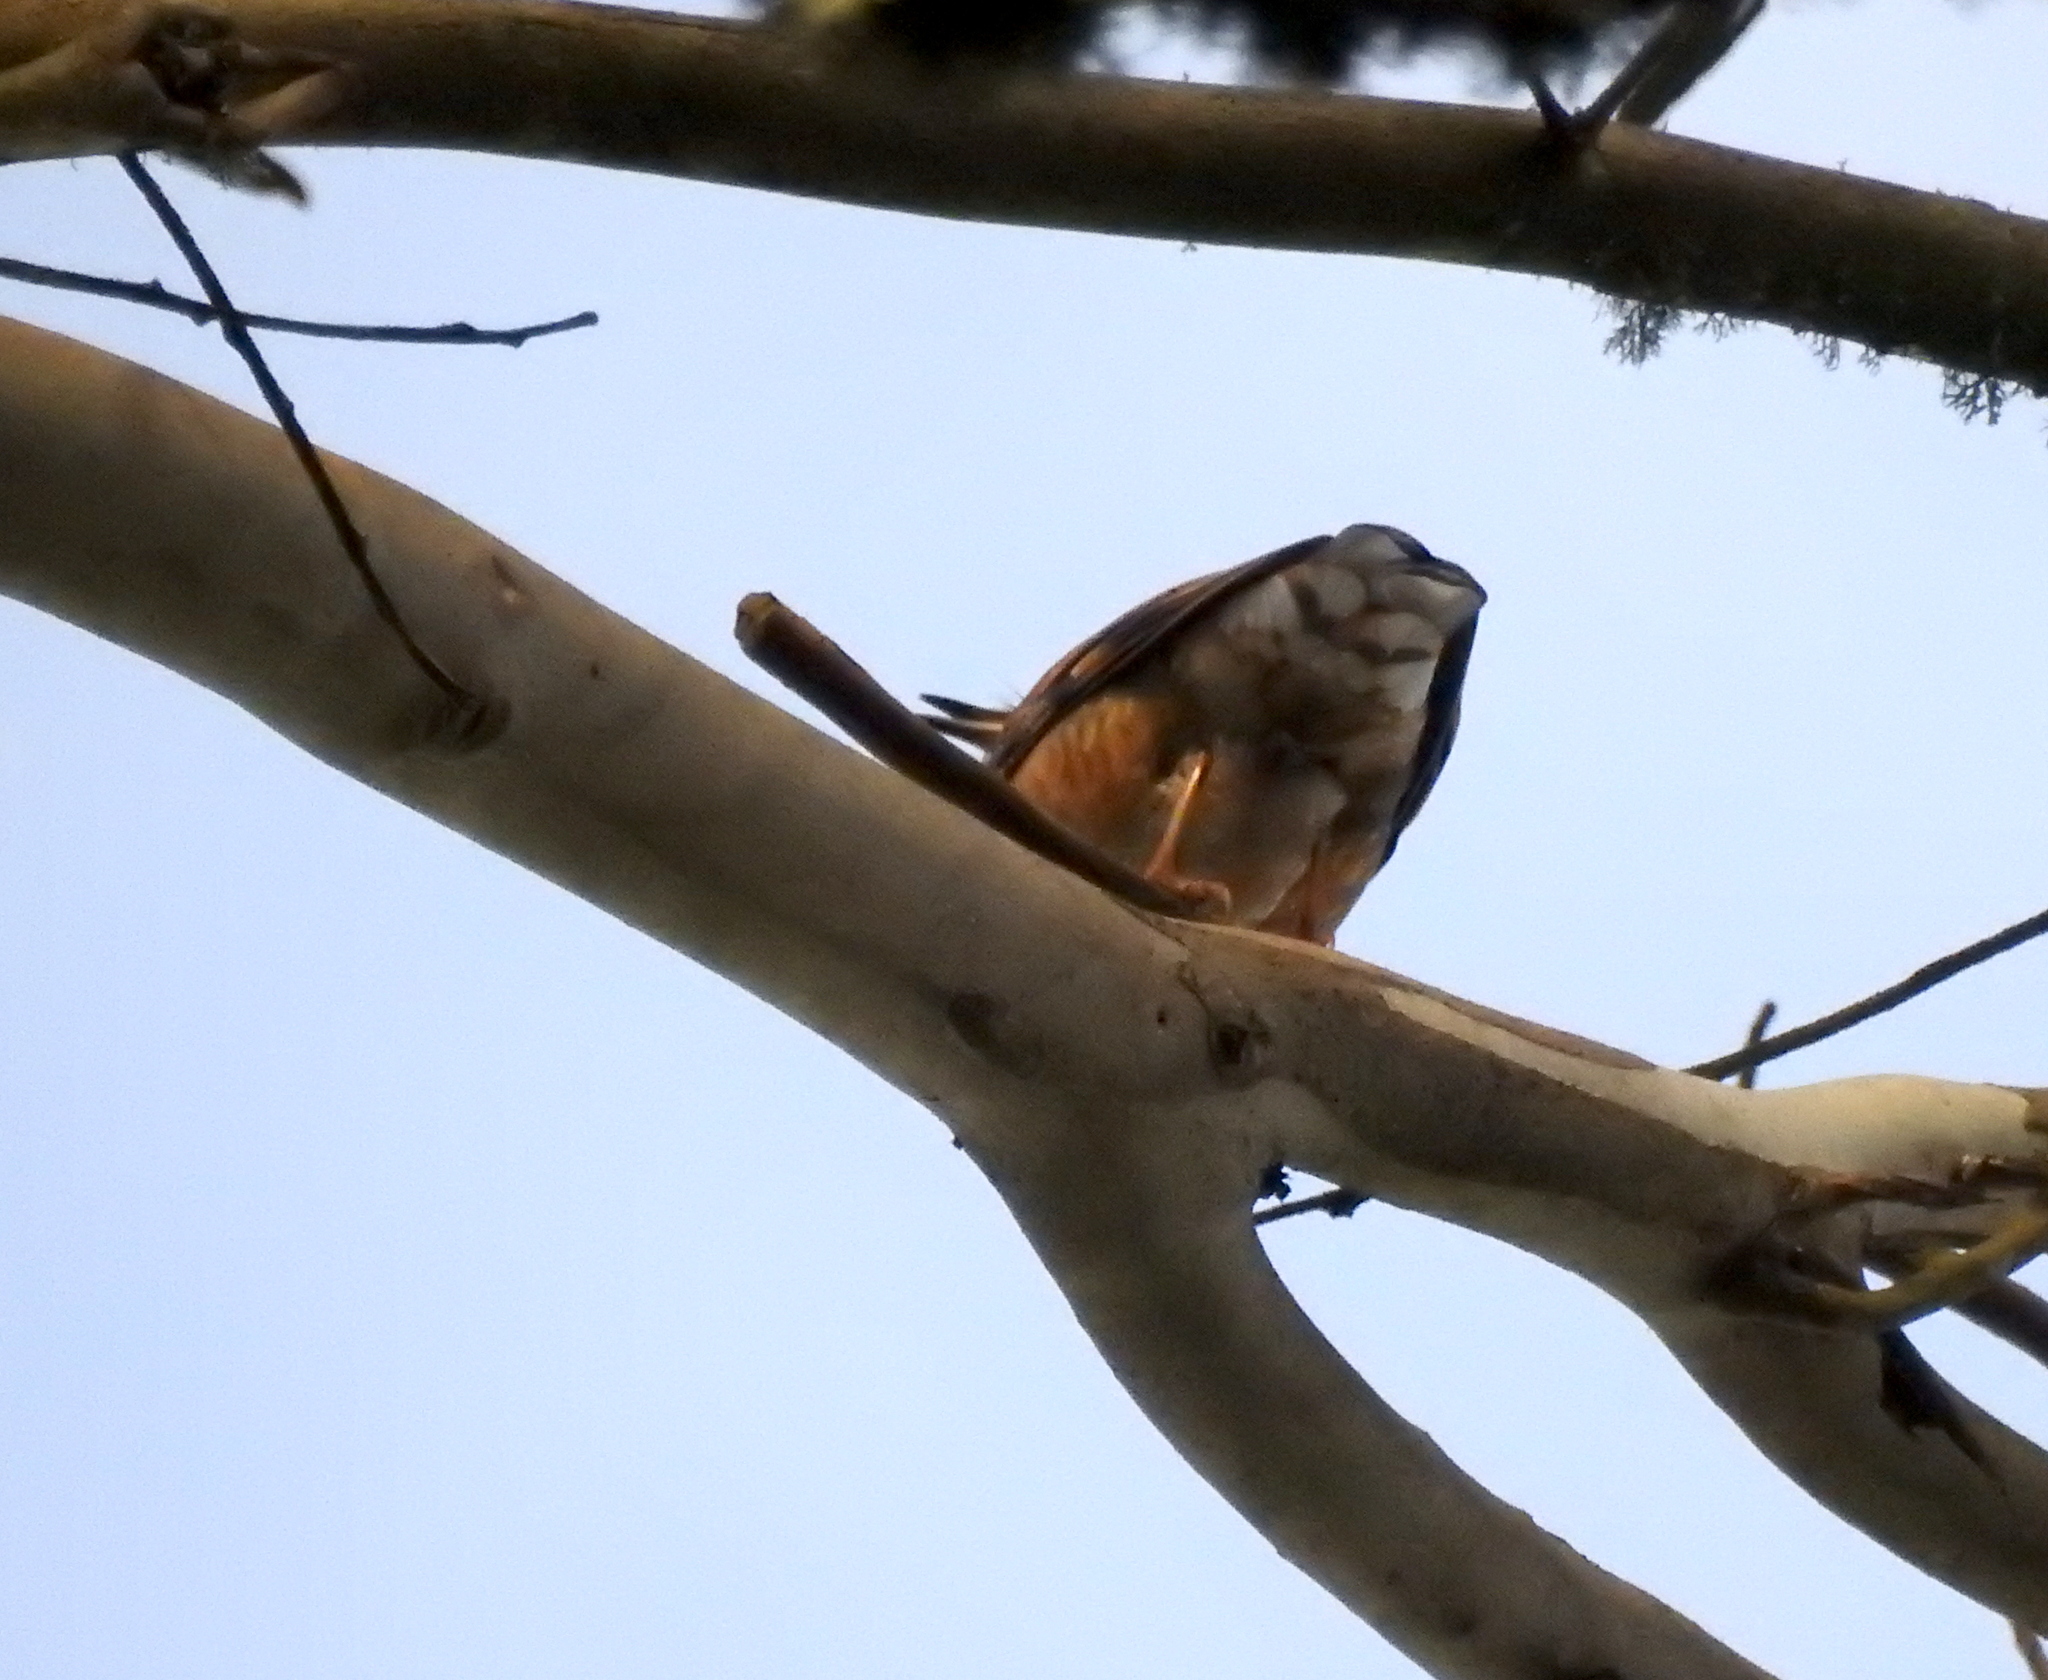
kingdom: Animalia
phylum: Chordata
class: Aves
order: Passeriformes
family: Turdidae
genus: Ixoreus
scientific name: Ixoreus naevius
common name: Varied thrush
